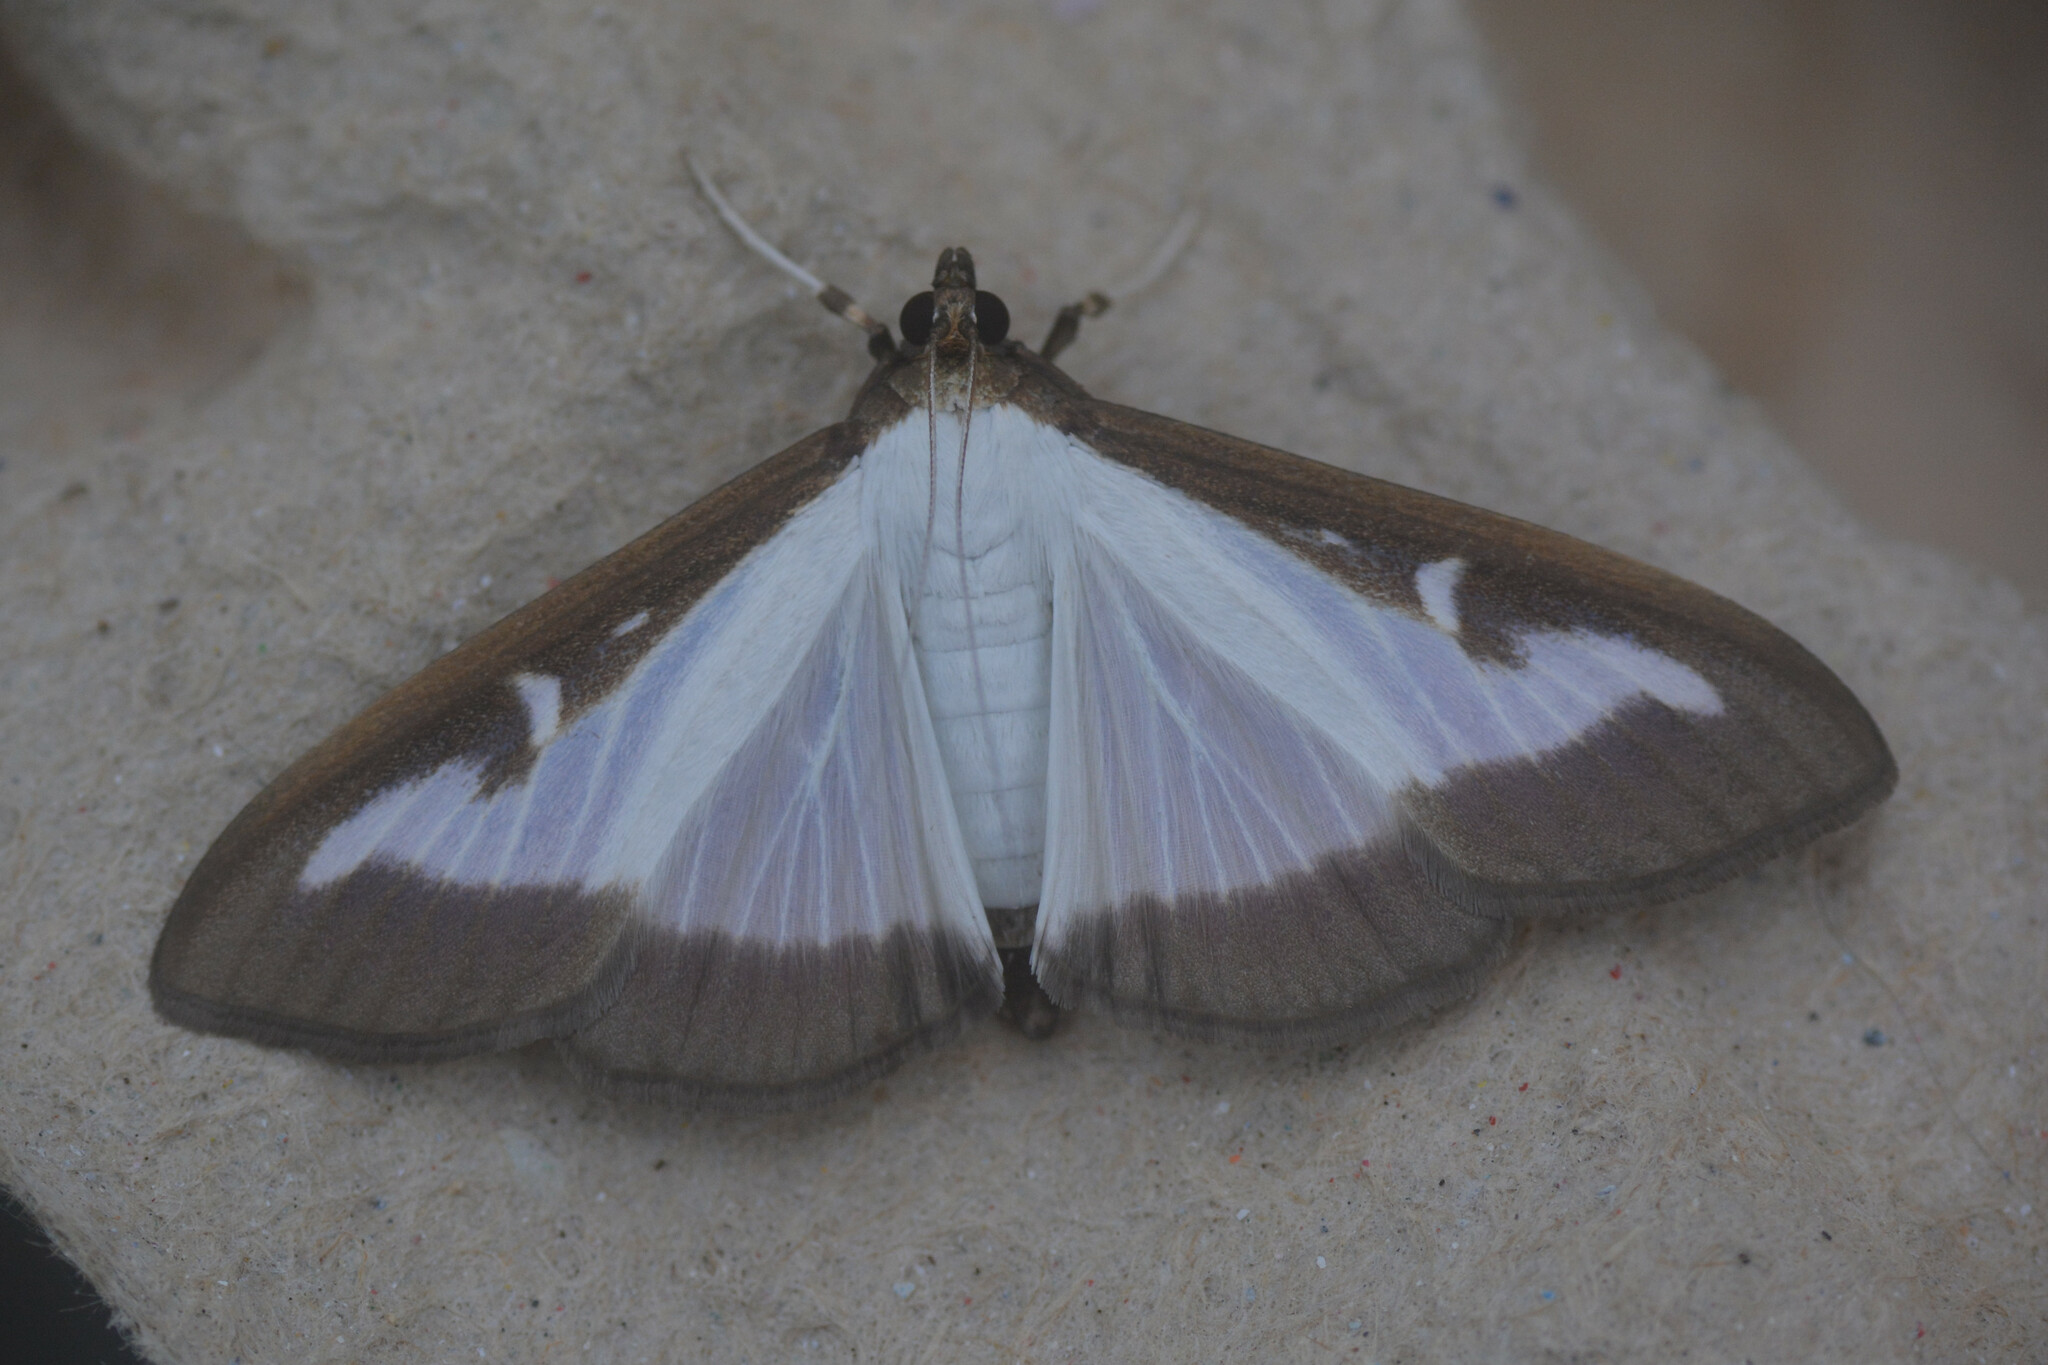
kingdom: Animalia
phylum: Arthropoda
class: Insecta
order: Lepidoptera
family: Crambidae
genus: Cydalima
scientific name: Cydalima perspectalis
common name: Box tree moth
